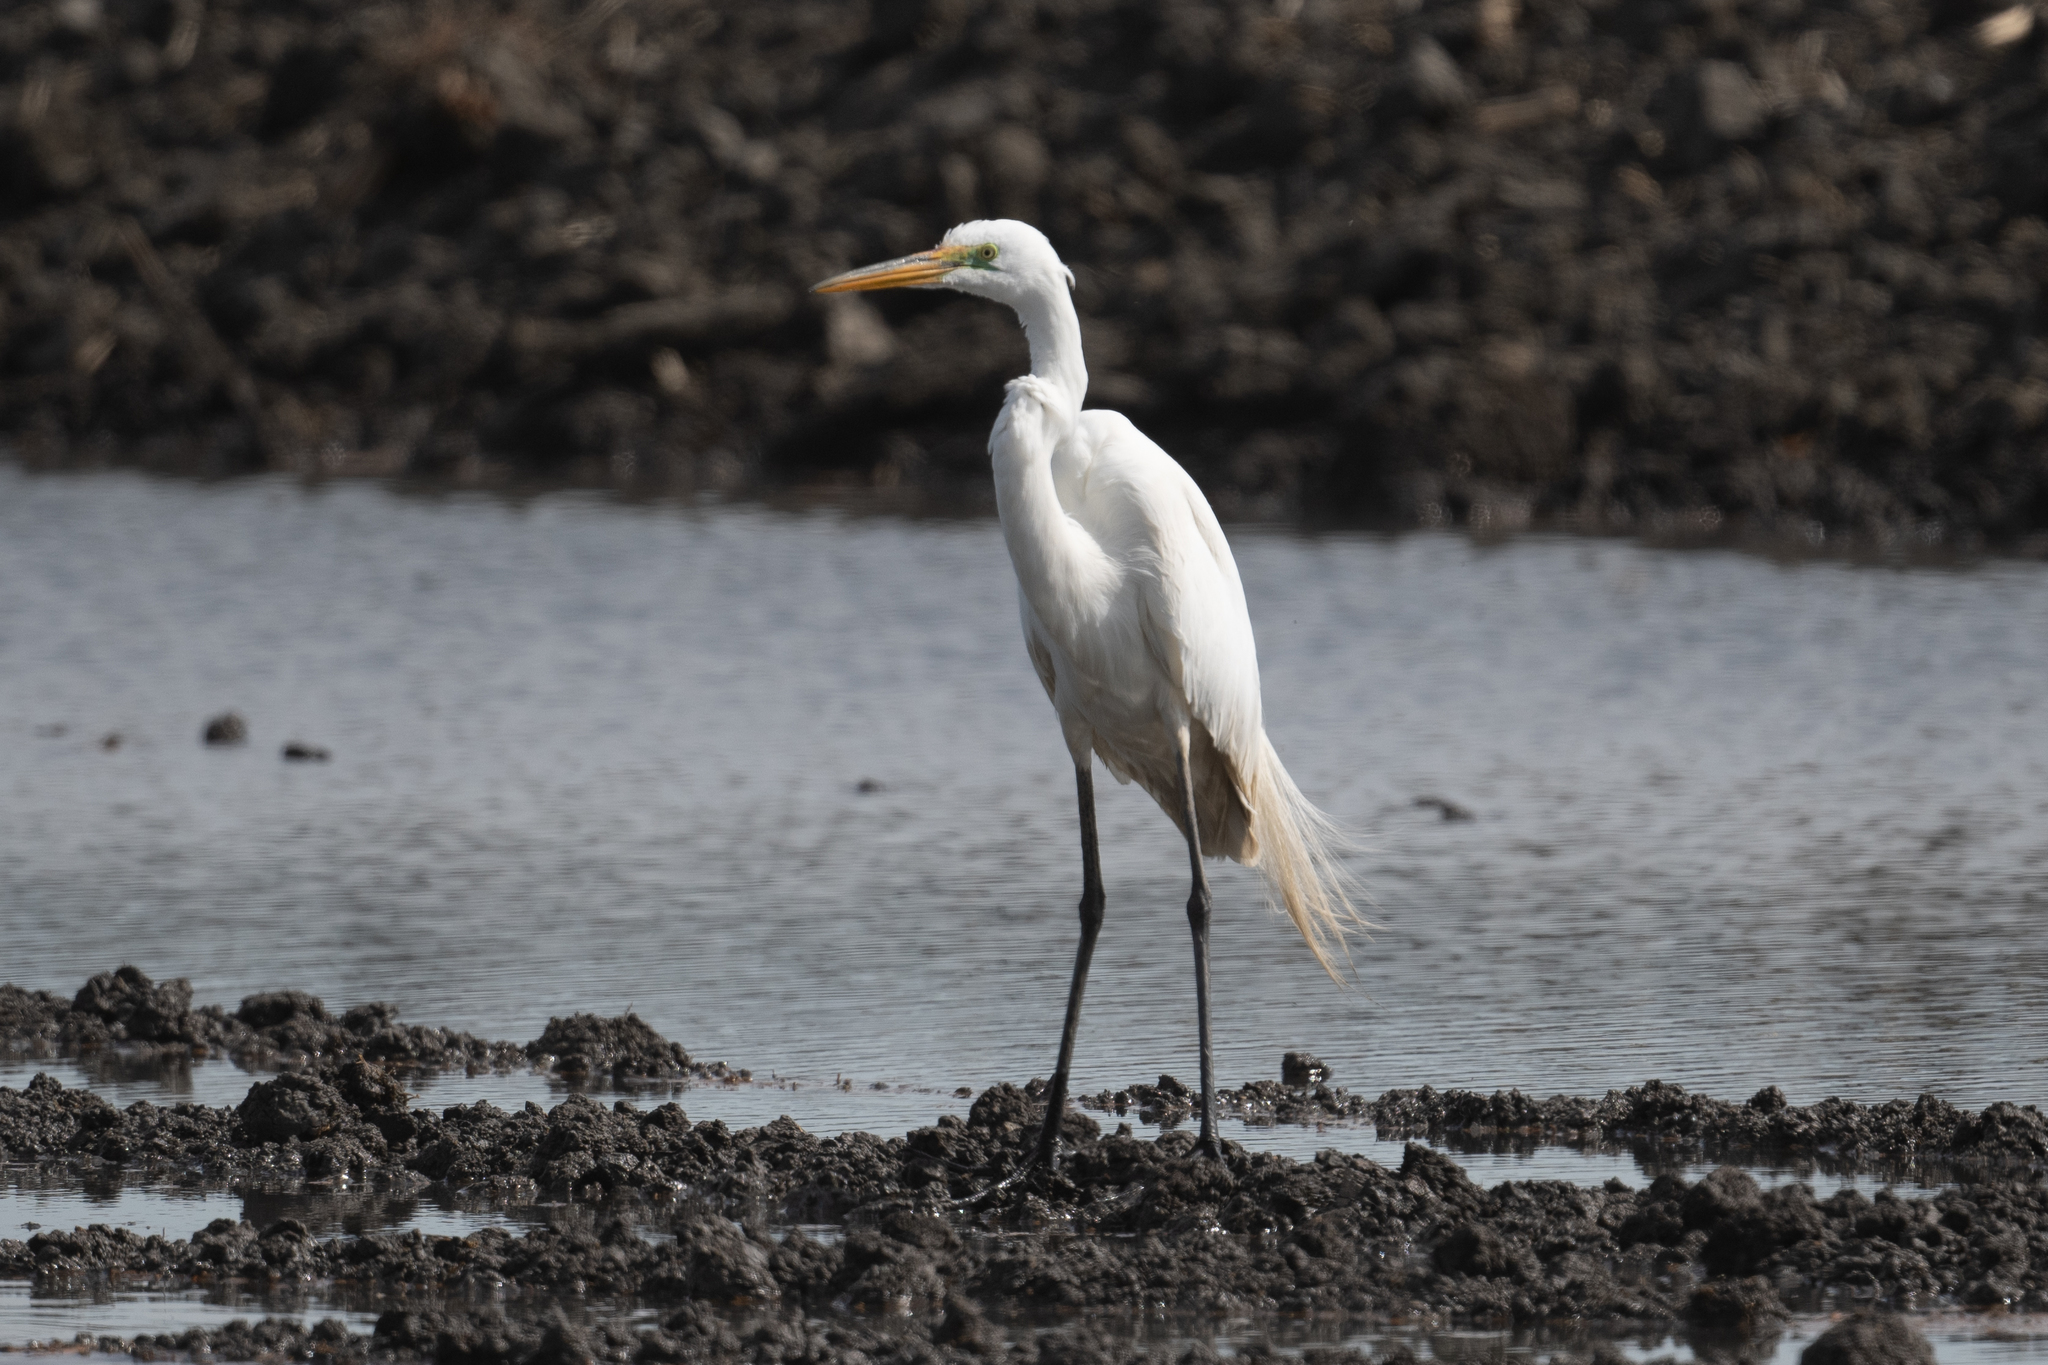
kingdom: Animalia
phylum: Chordata
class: Aves
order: Pelecaniformes
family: Ardeidae
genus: Ardea
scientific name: Ardea alba
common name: Great egret
